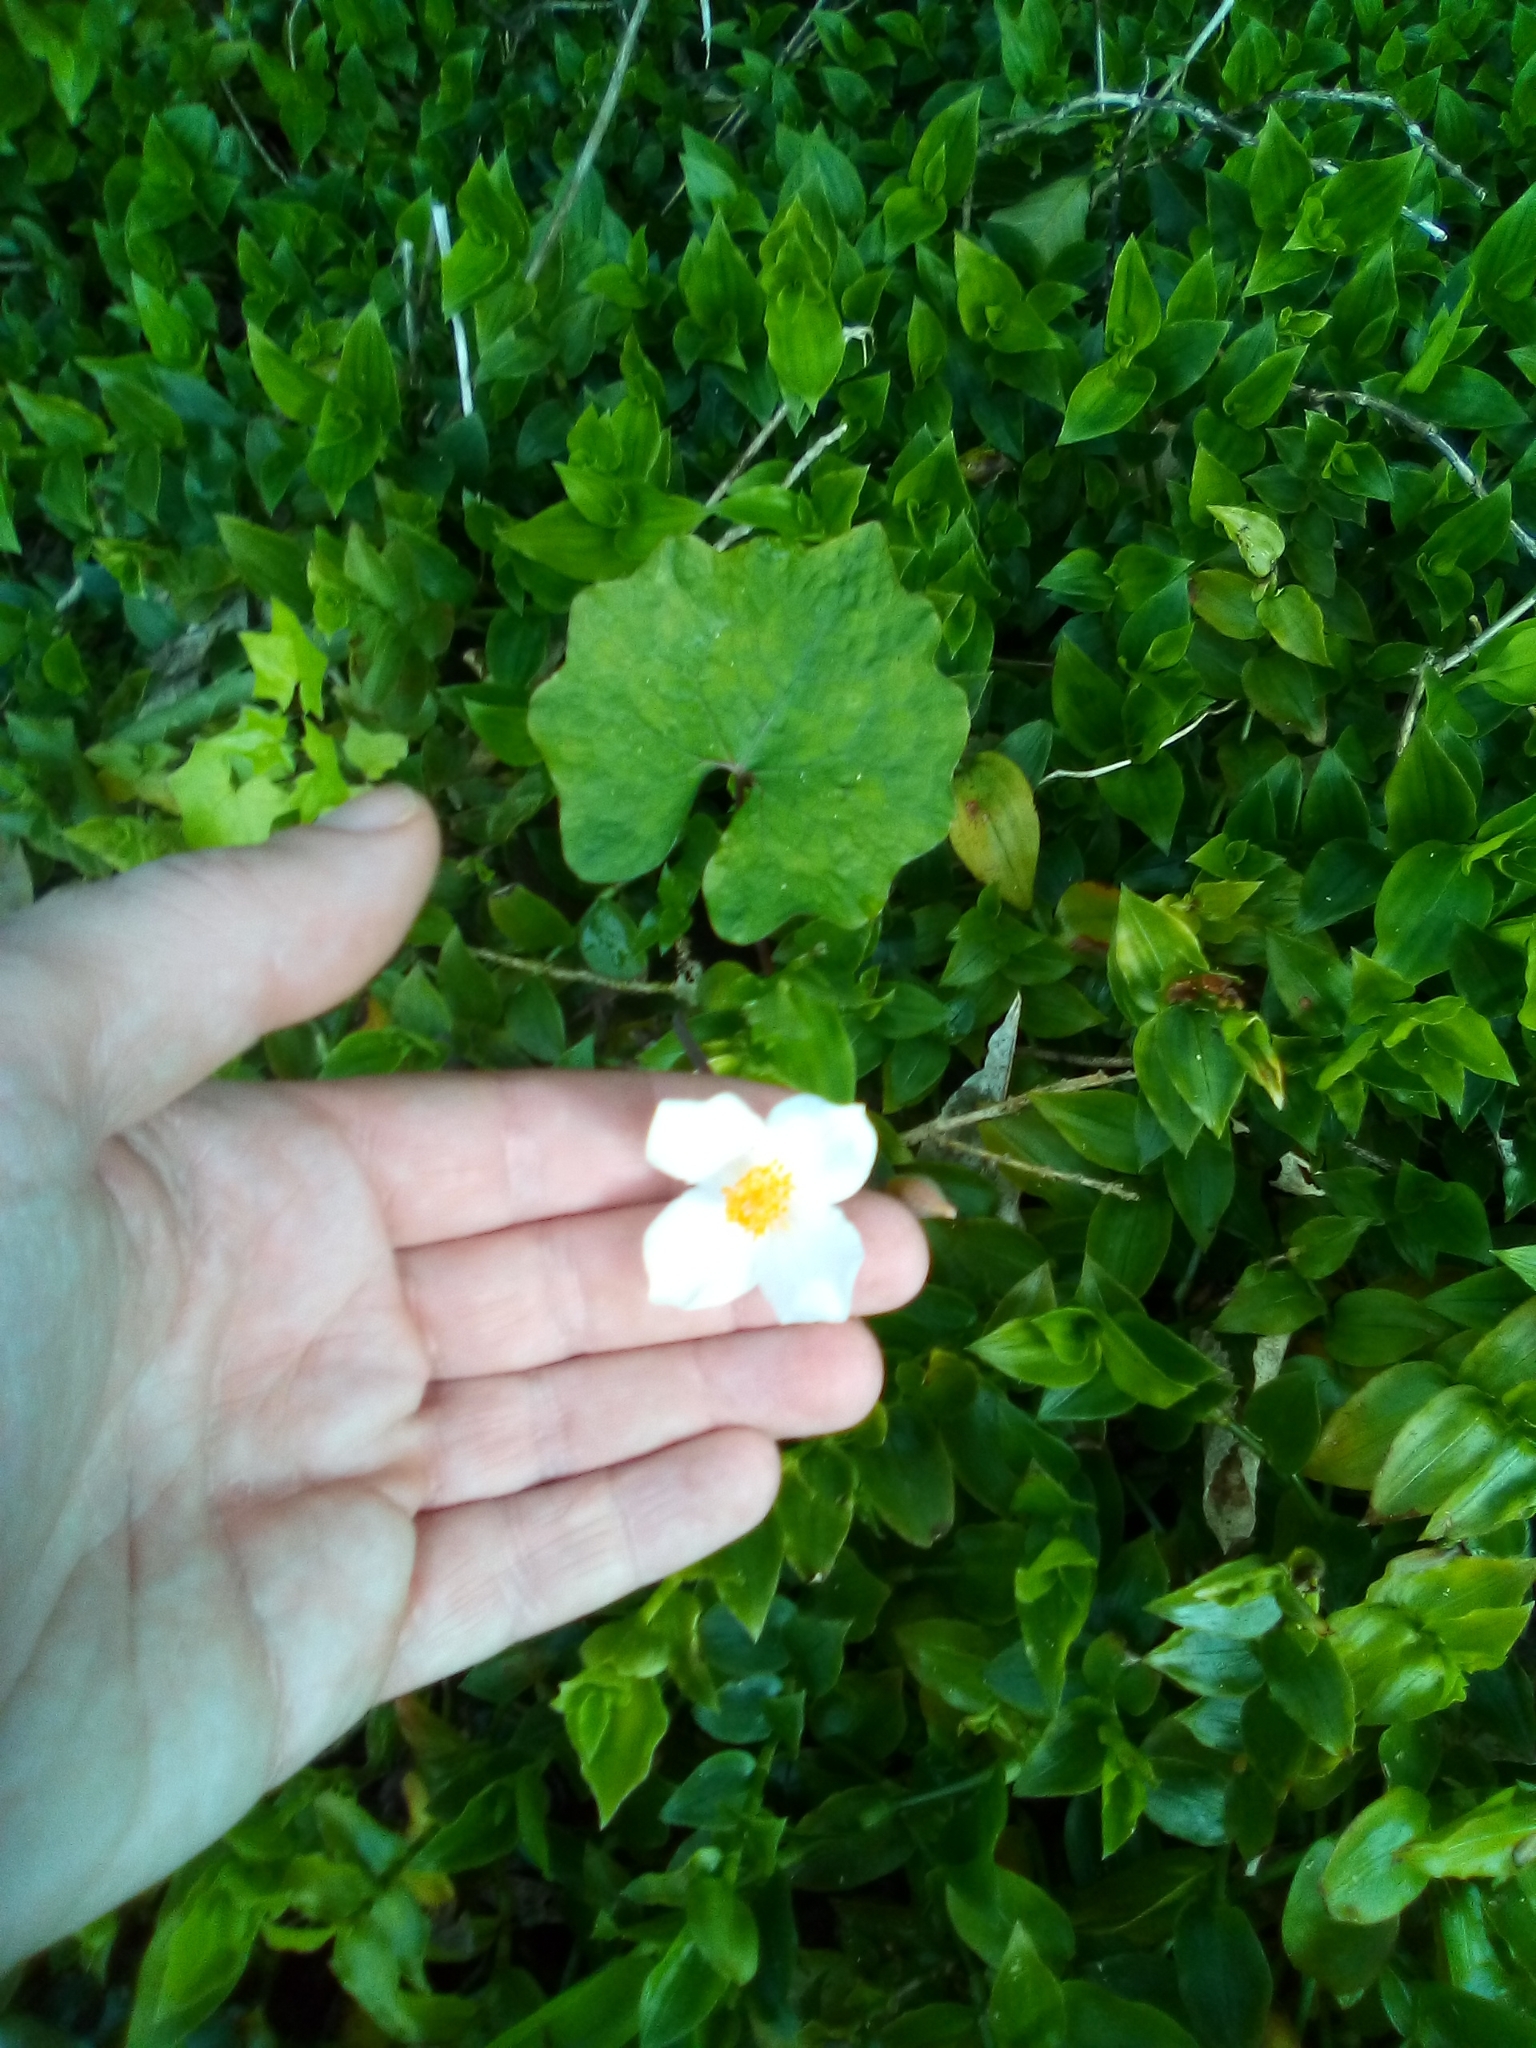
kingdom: Plantae
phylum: Tracheophyta
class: Magnoliopsida
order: Ranunculales
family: Papaveraceae
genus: Eomecon
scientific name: Eomecon chionantha
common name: Dawn-poppy
